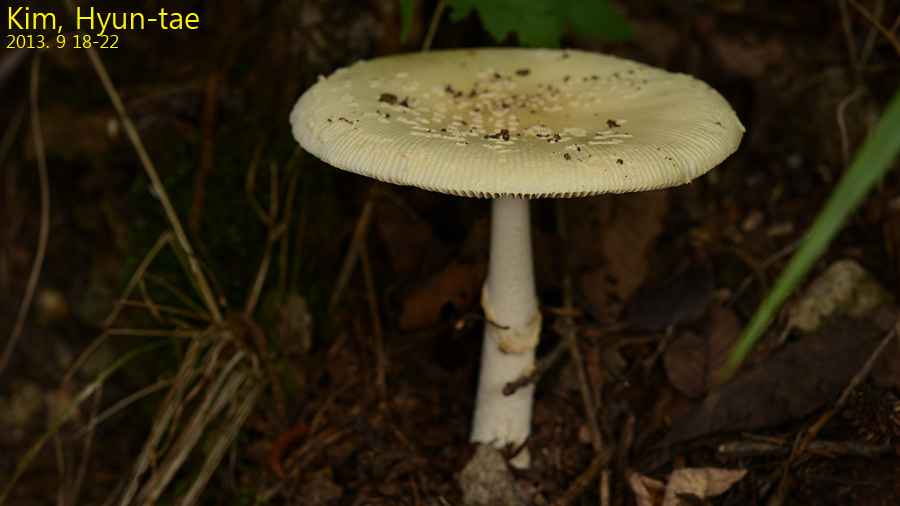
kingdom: Fungi
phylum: Basidiomycota
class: Agaricomycetes
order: Agaricales
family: Amanitaceae
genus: Amanita
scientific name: Amanita subparvipantherina
